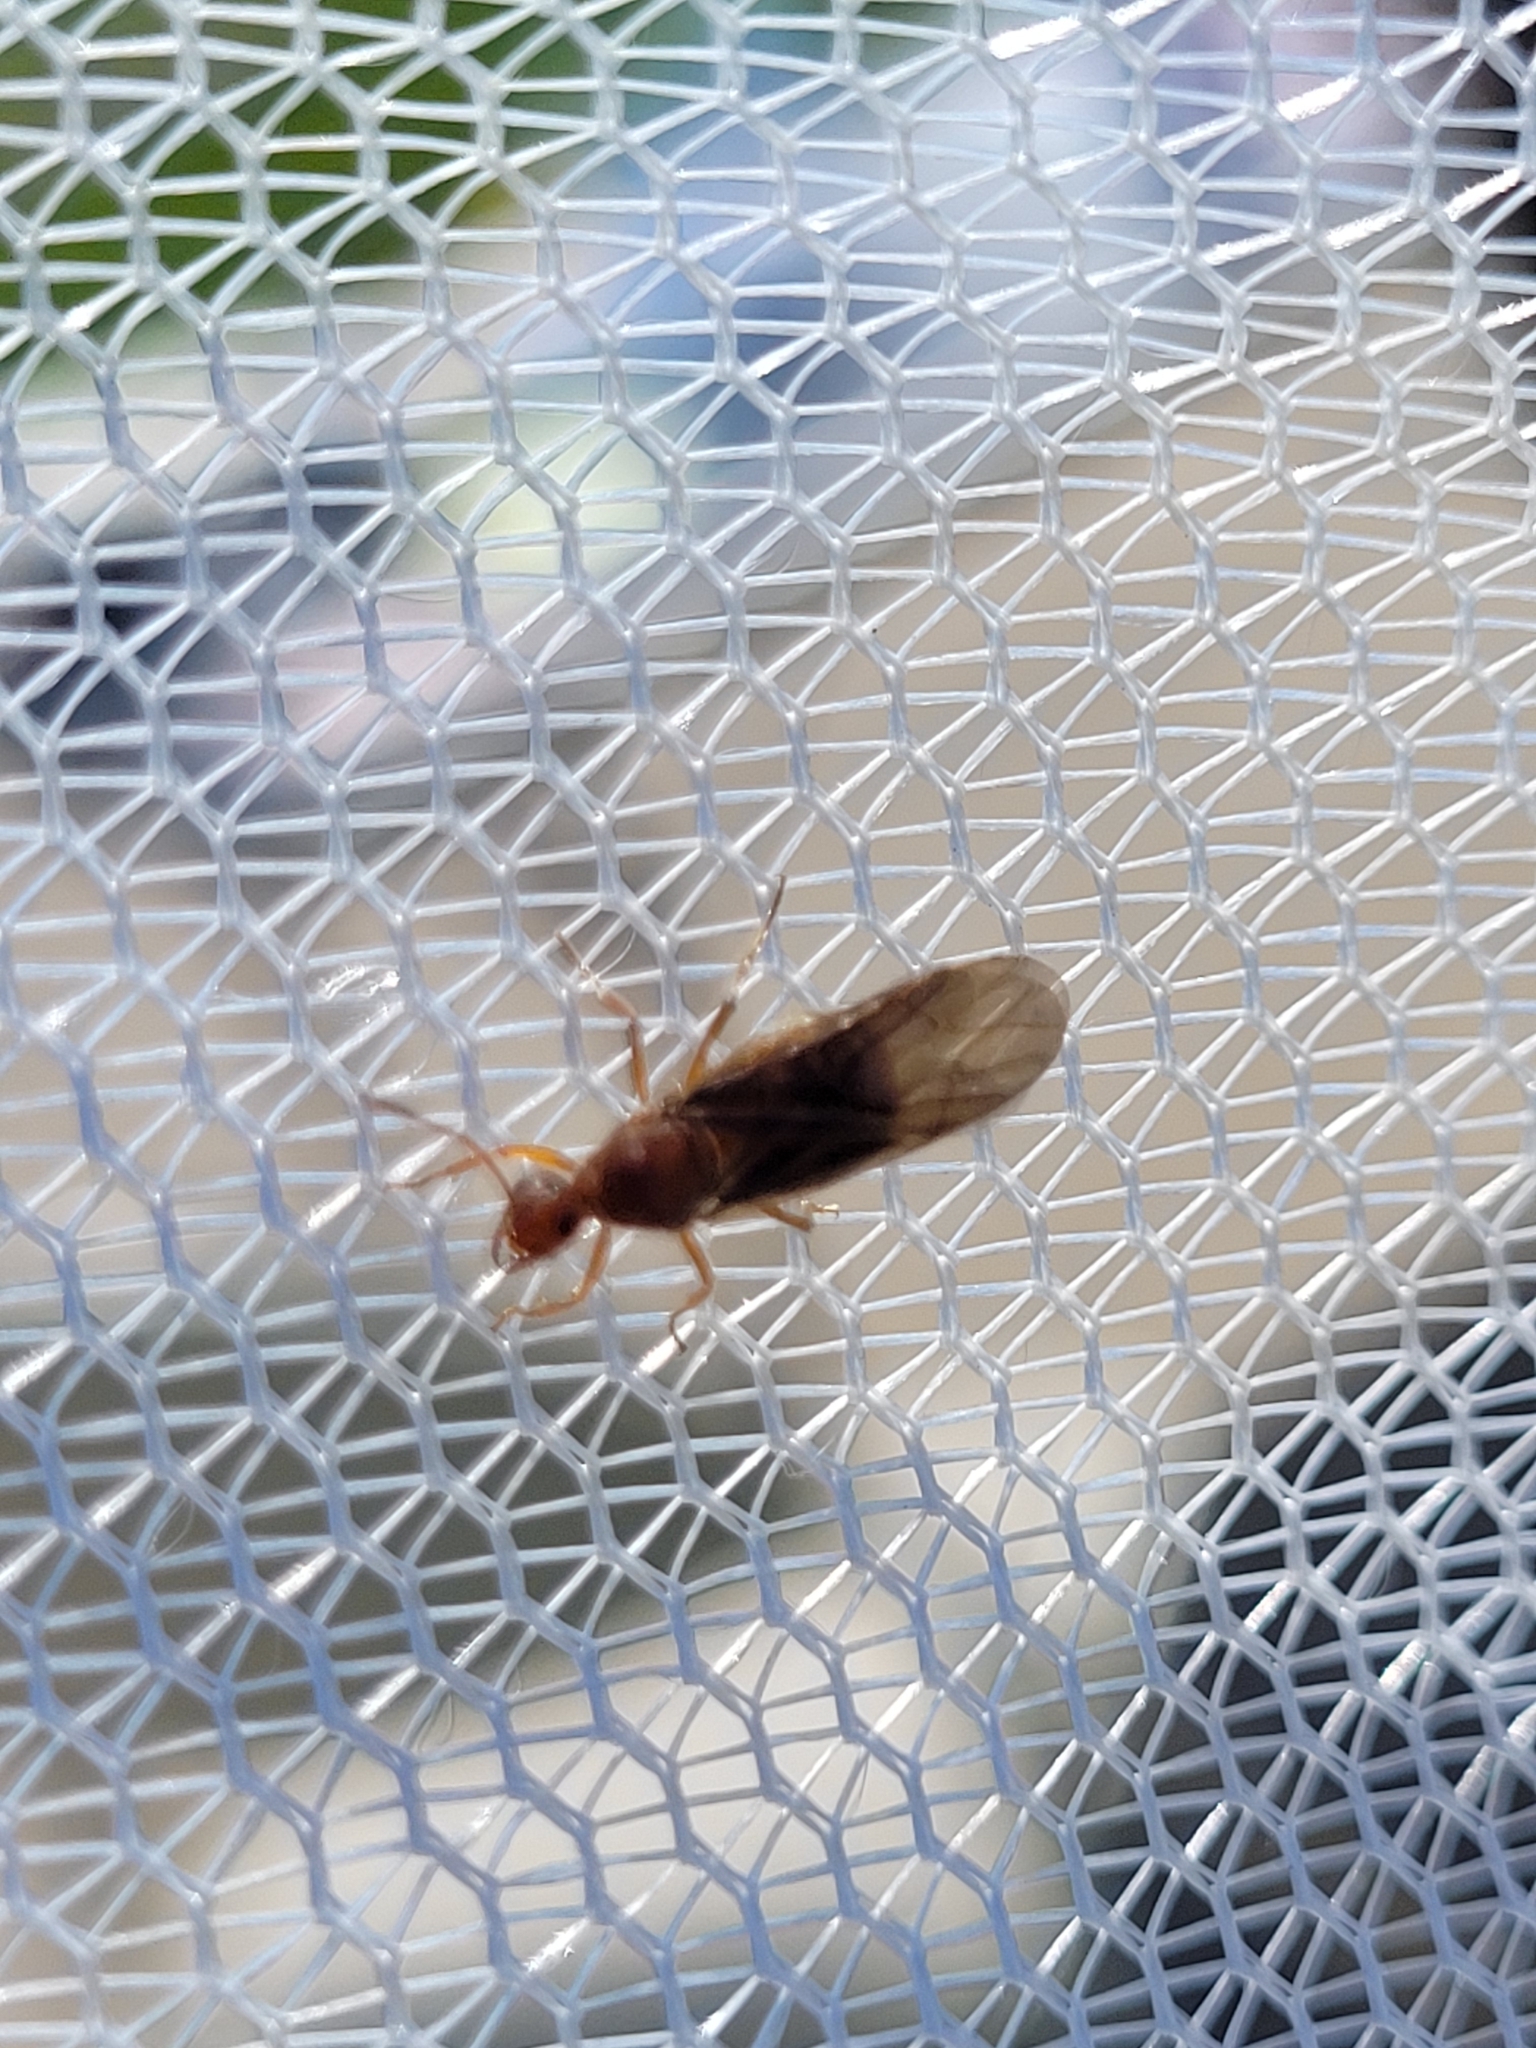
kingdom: Animalia
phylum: Arthropoda
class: Insecta
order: Hymenoptera
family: Formicidae
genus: Prenolepis
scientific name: Prenolepis imparis
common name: Small honey ant
